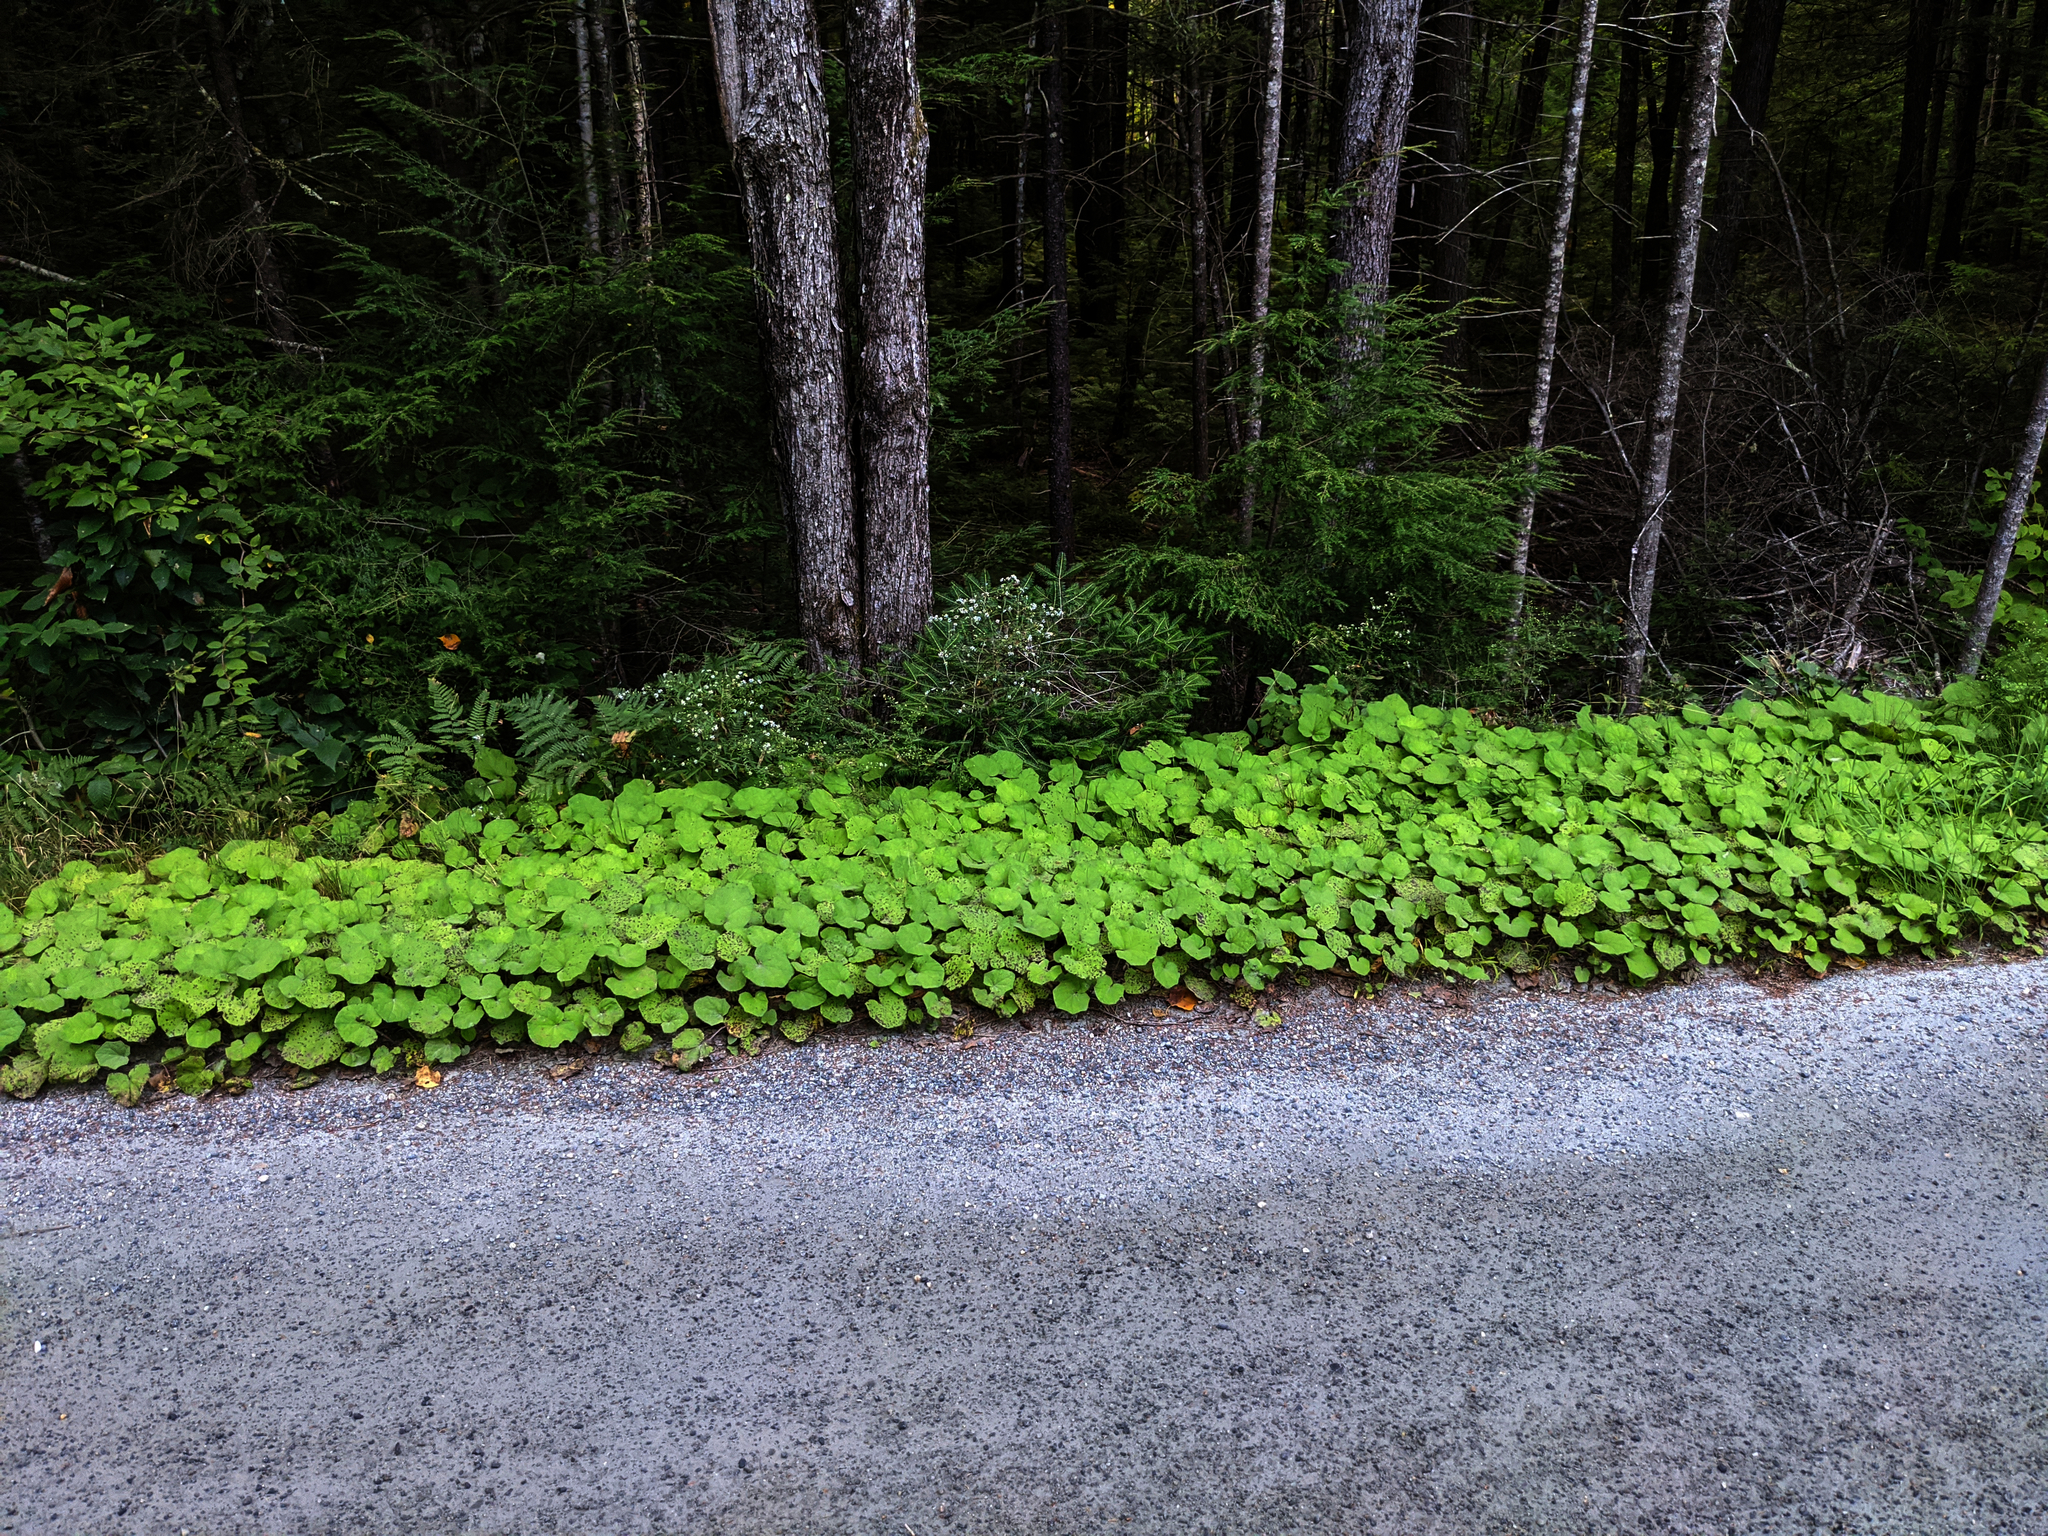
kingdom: Plantae
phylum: Tracheophyta
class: Magnoliopsida
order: Asterales
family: Asteraceae
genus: Tussilago
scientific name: Tussilago farfara
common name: Coltsfoot
